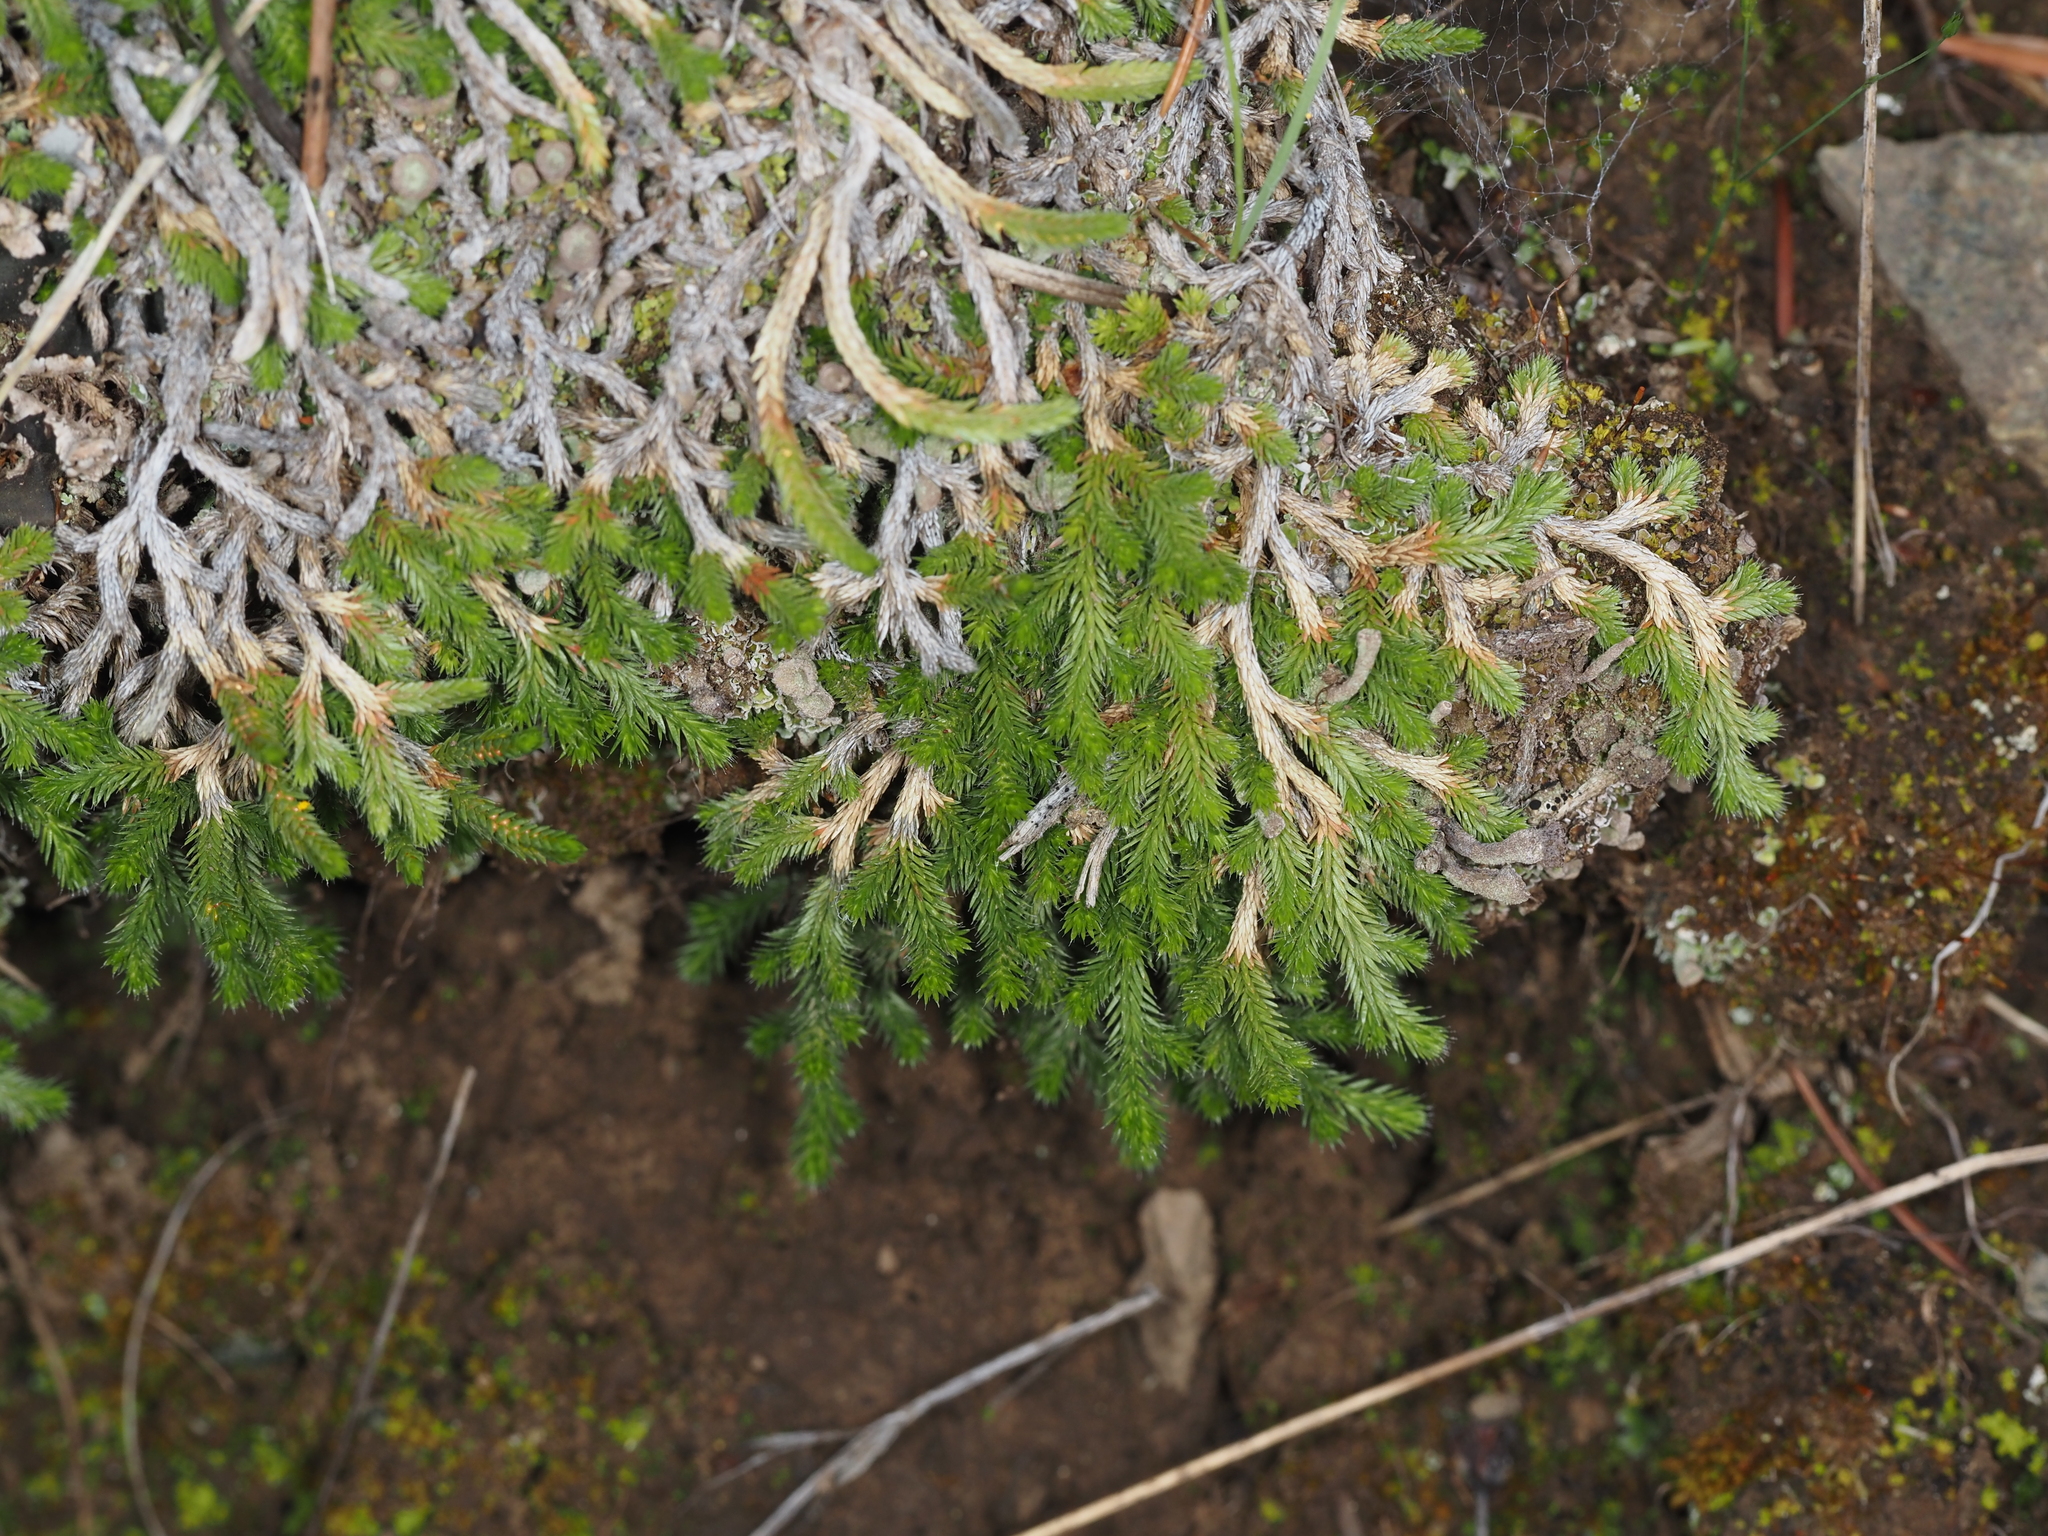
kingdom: Plantae
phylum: Tracheophyta
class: Lycopodiopsida
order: Selaginellales
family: Selaginellaceae
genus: Selaginella
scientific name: Selaginella wallacei
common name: Wallace's selaginella
